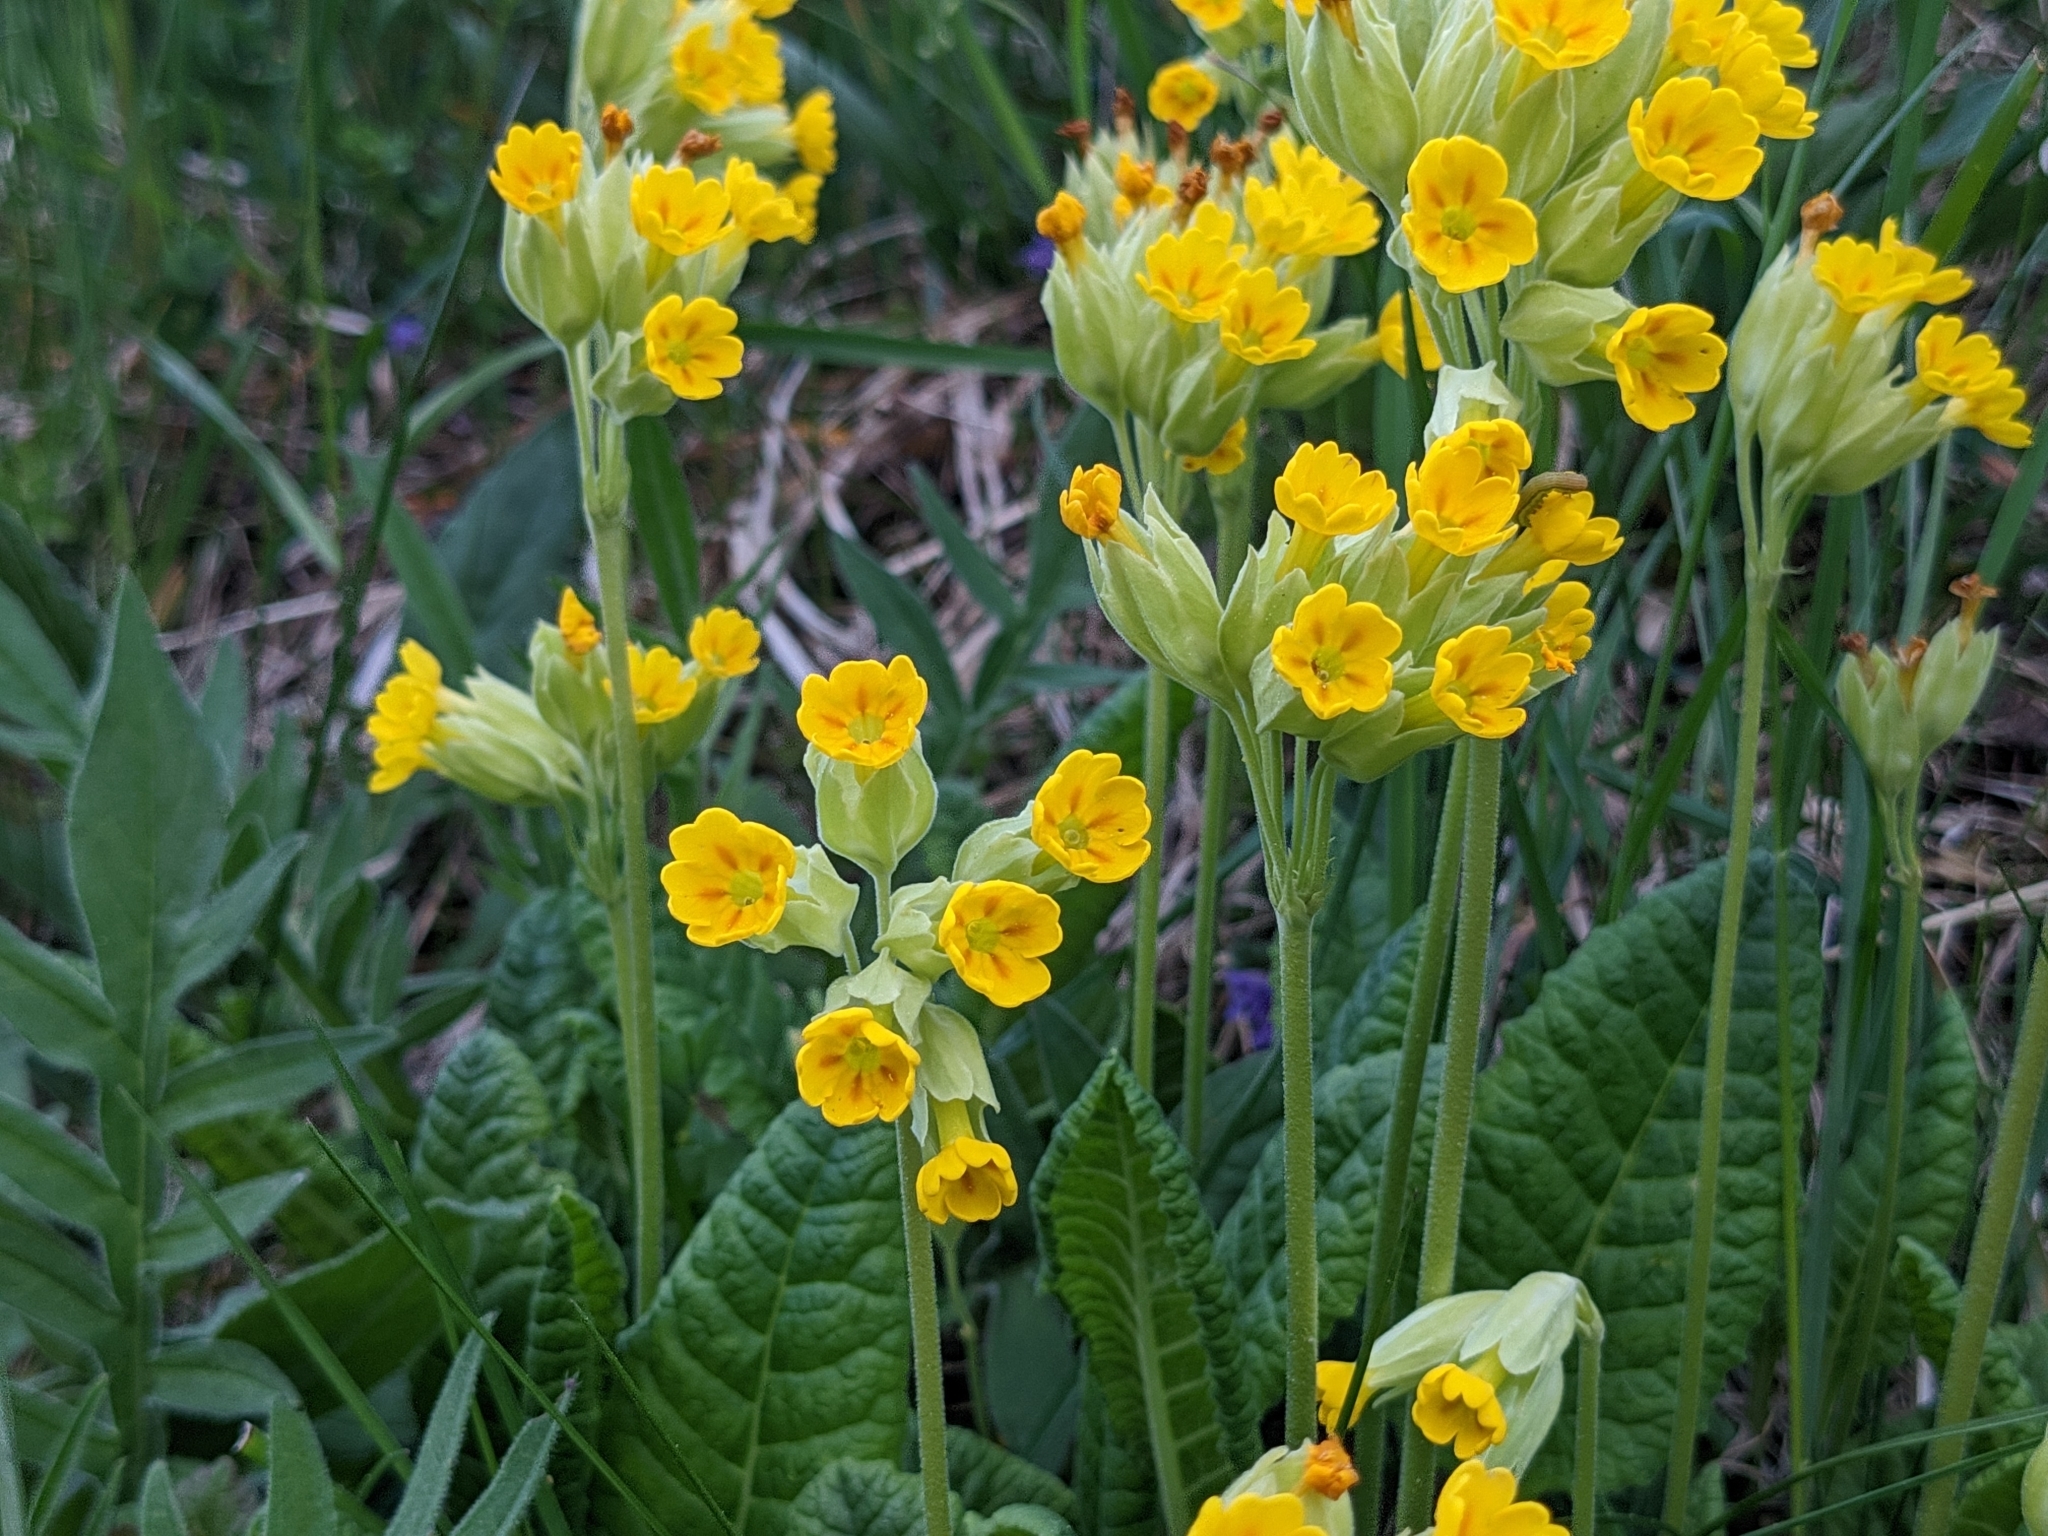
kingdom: Plantae
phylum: Tracheophyta
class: Magnoliopsida
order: Ericales
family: Primulaceae
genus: Primula
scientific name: Primula veris
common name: Cowslip
